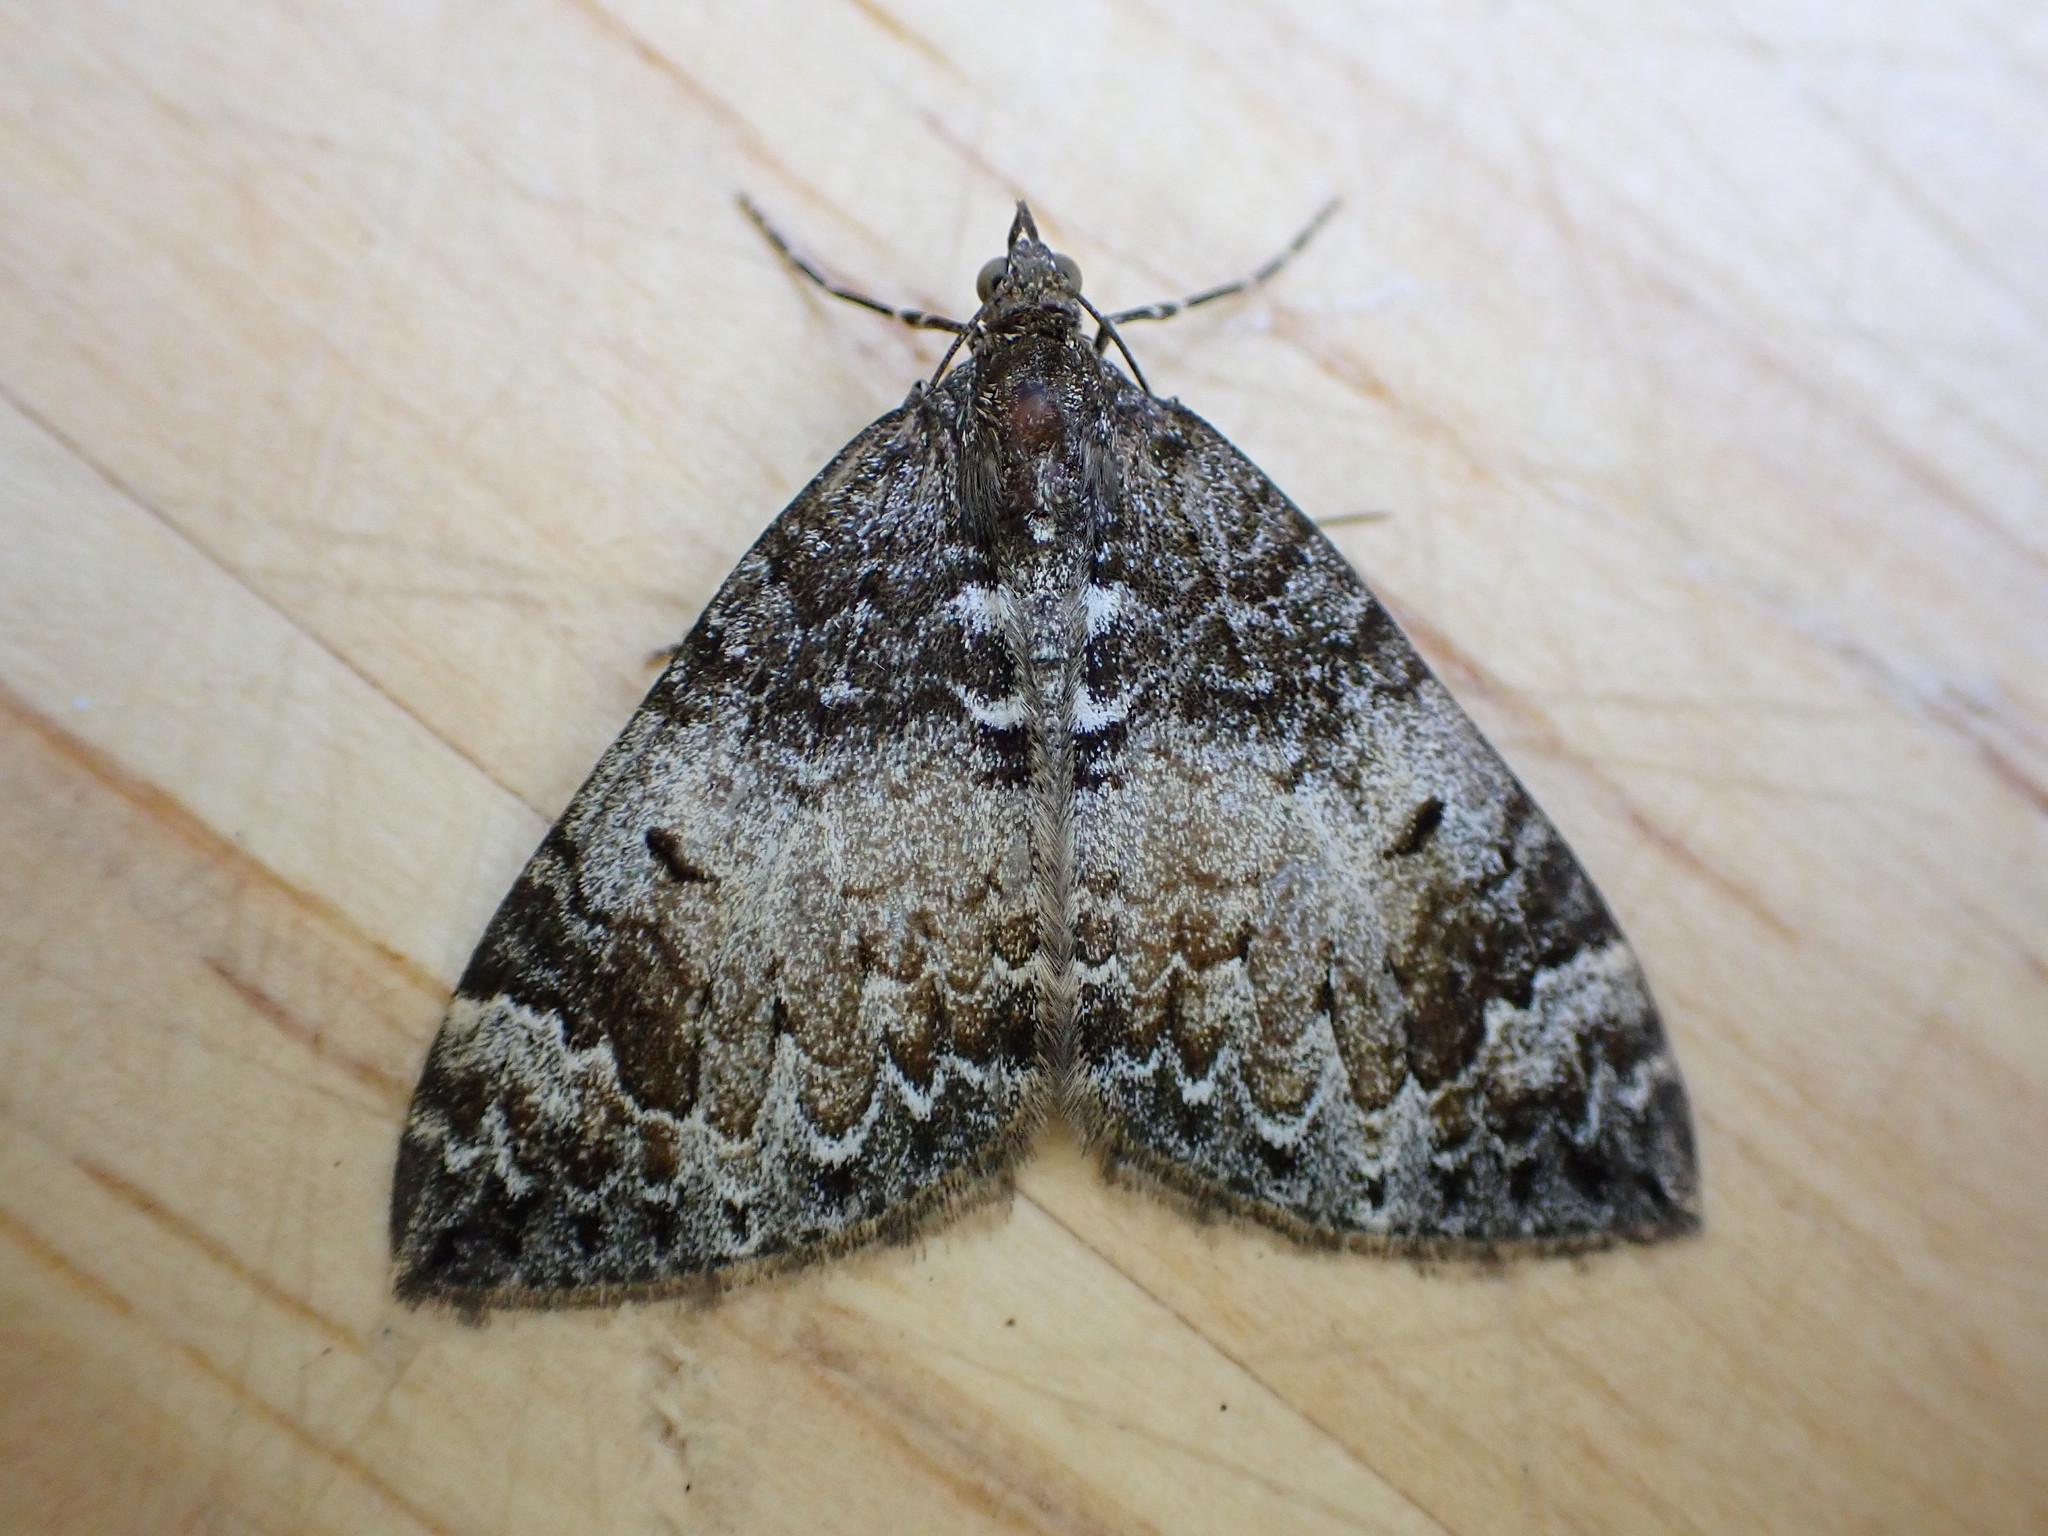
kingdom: Animalia
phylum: Arthropoda
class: Insecta
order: Lepidoptera
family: Geometridae
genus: Dysstroma
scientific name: Dysstroma truncata
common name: Common marbled carpet
